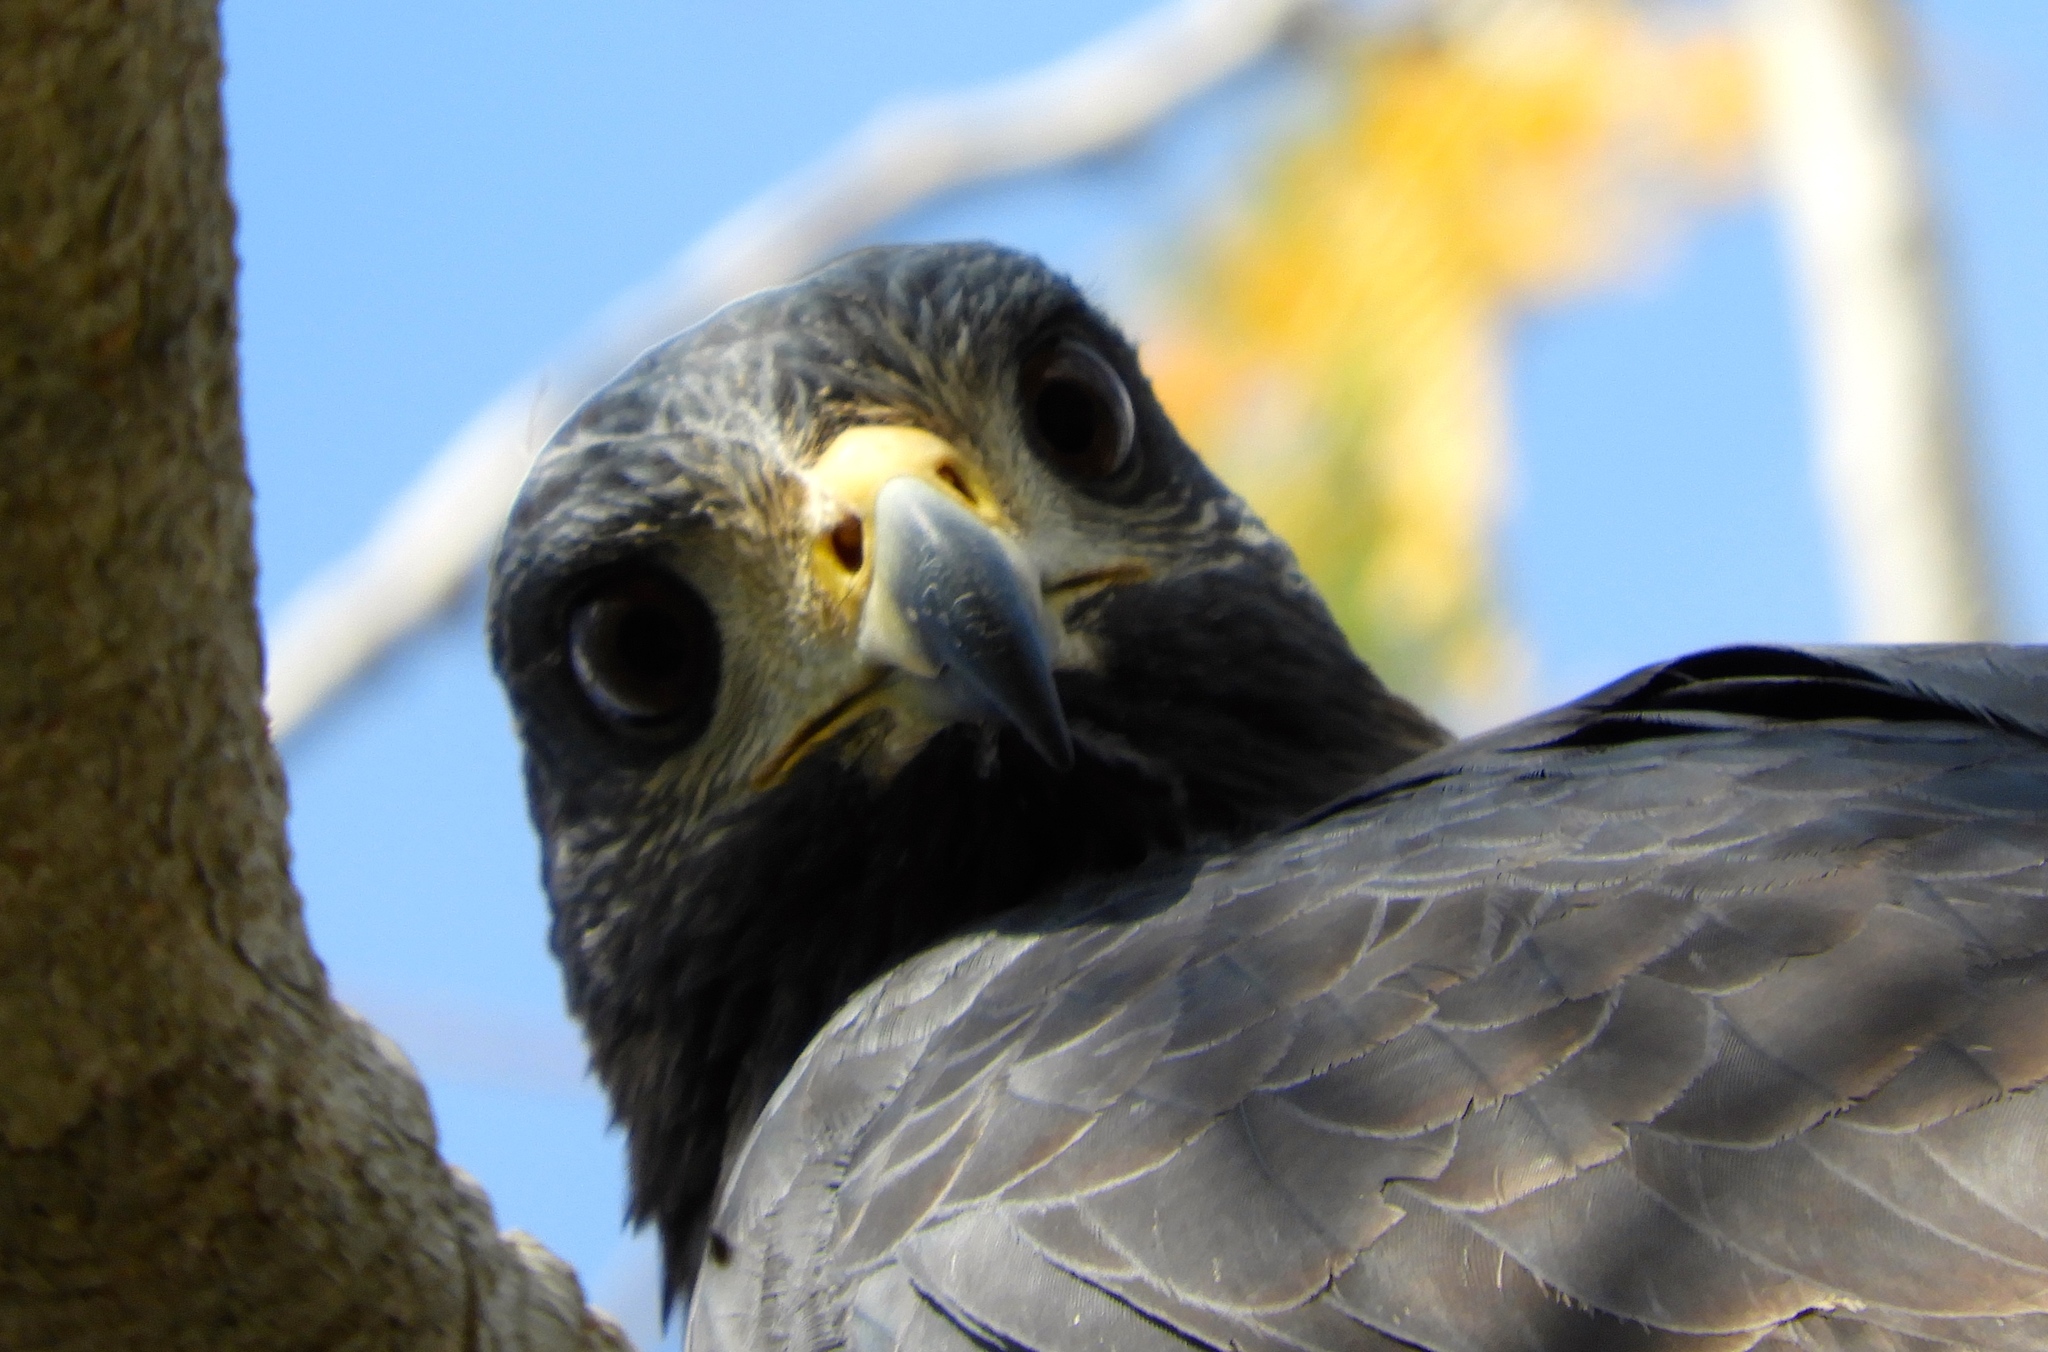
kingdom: Animalia
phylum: Chordata
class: Aves
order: Accipitriformes
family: Accipitridae
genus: Buteogallus
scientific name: Buteogallus anthracinus
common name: Common black hawk
